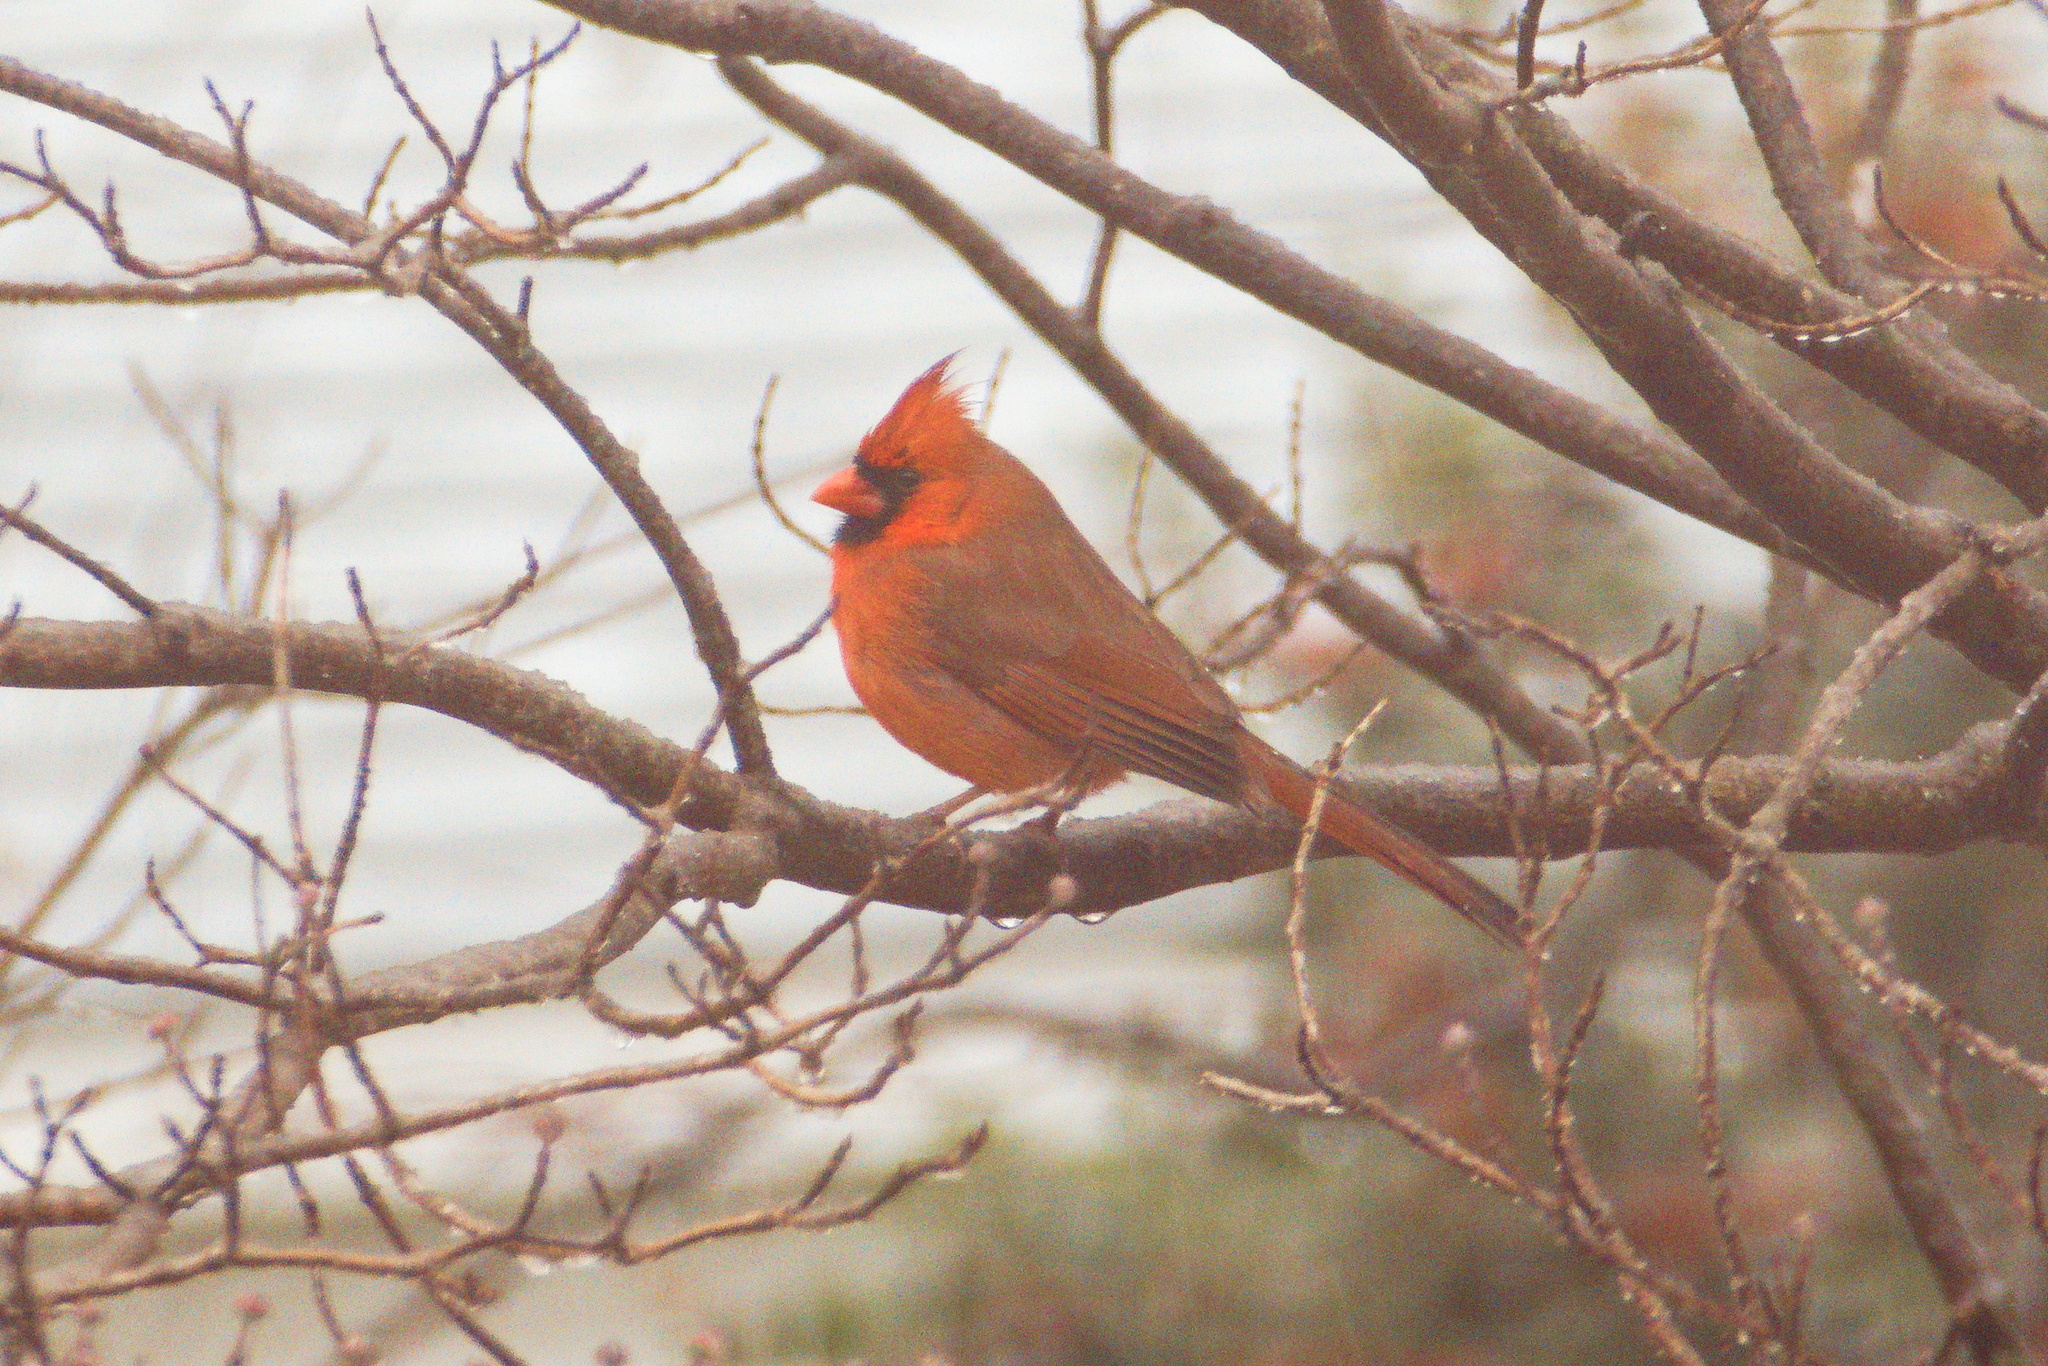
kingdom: Animalia
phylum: Chordata
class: Aves
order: Passeriformes
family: Cardinalidae
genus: Cardinalis
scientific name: Cardinalis cardinalis
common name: Northern cardinal
